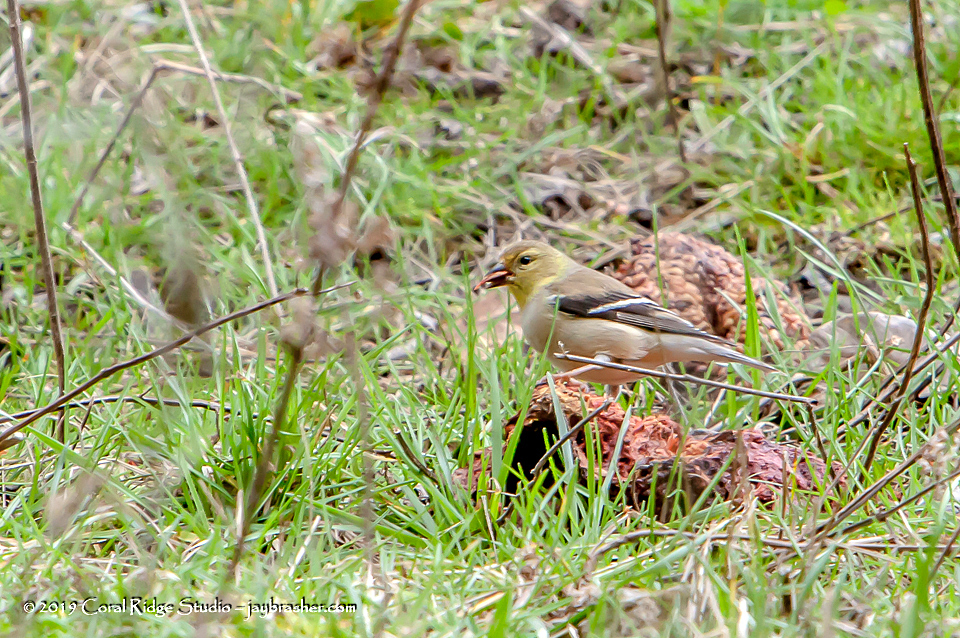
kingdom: Animalia
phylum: Chordata
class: Aves
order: Passeriformes
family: Fringillidae
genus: Spinus
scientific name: Spinus tristis
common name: American goldfinch
